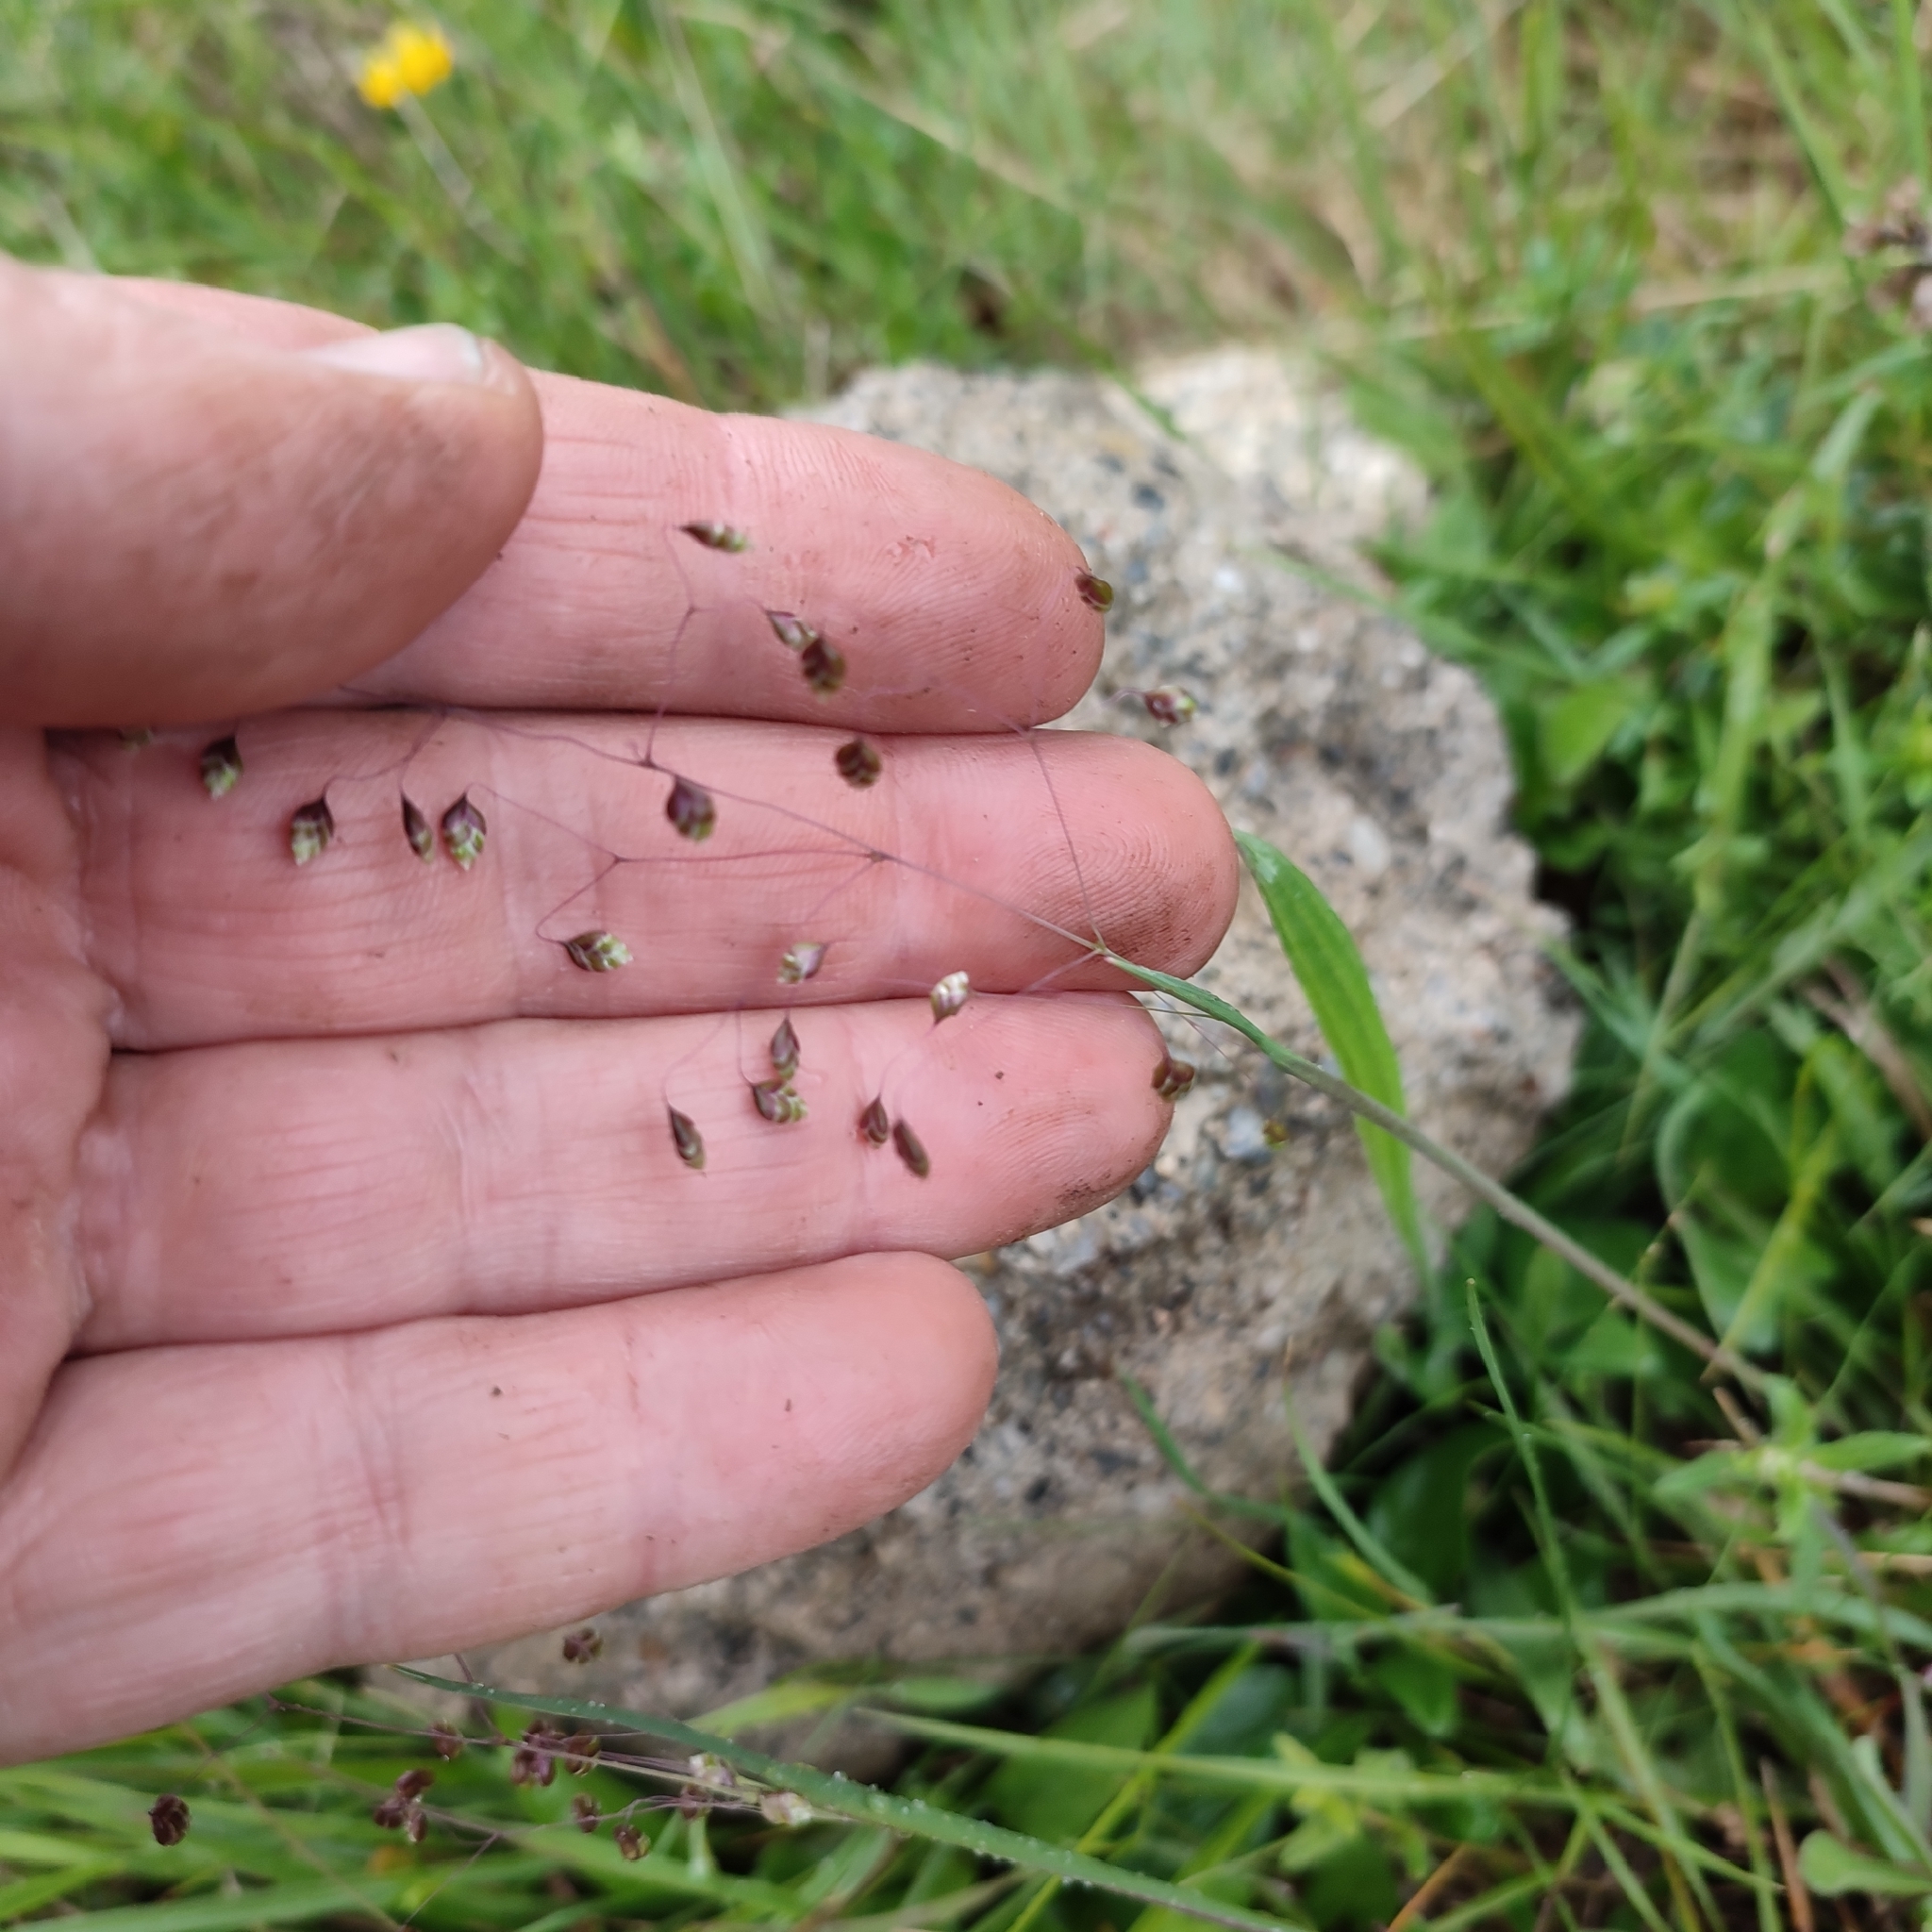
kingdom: Plantae
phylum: Tracheophyta
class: Liliopsida
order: Poales
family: Poaceae
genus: Briza
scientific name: Briza media
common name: Quaking grass
